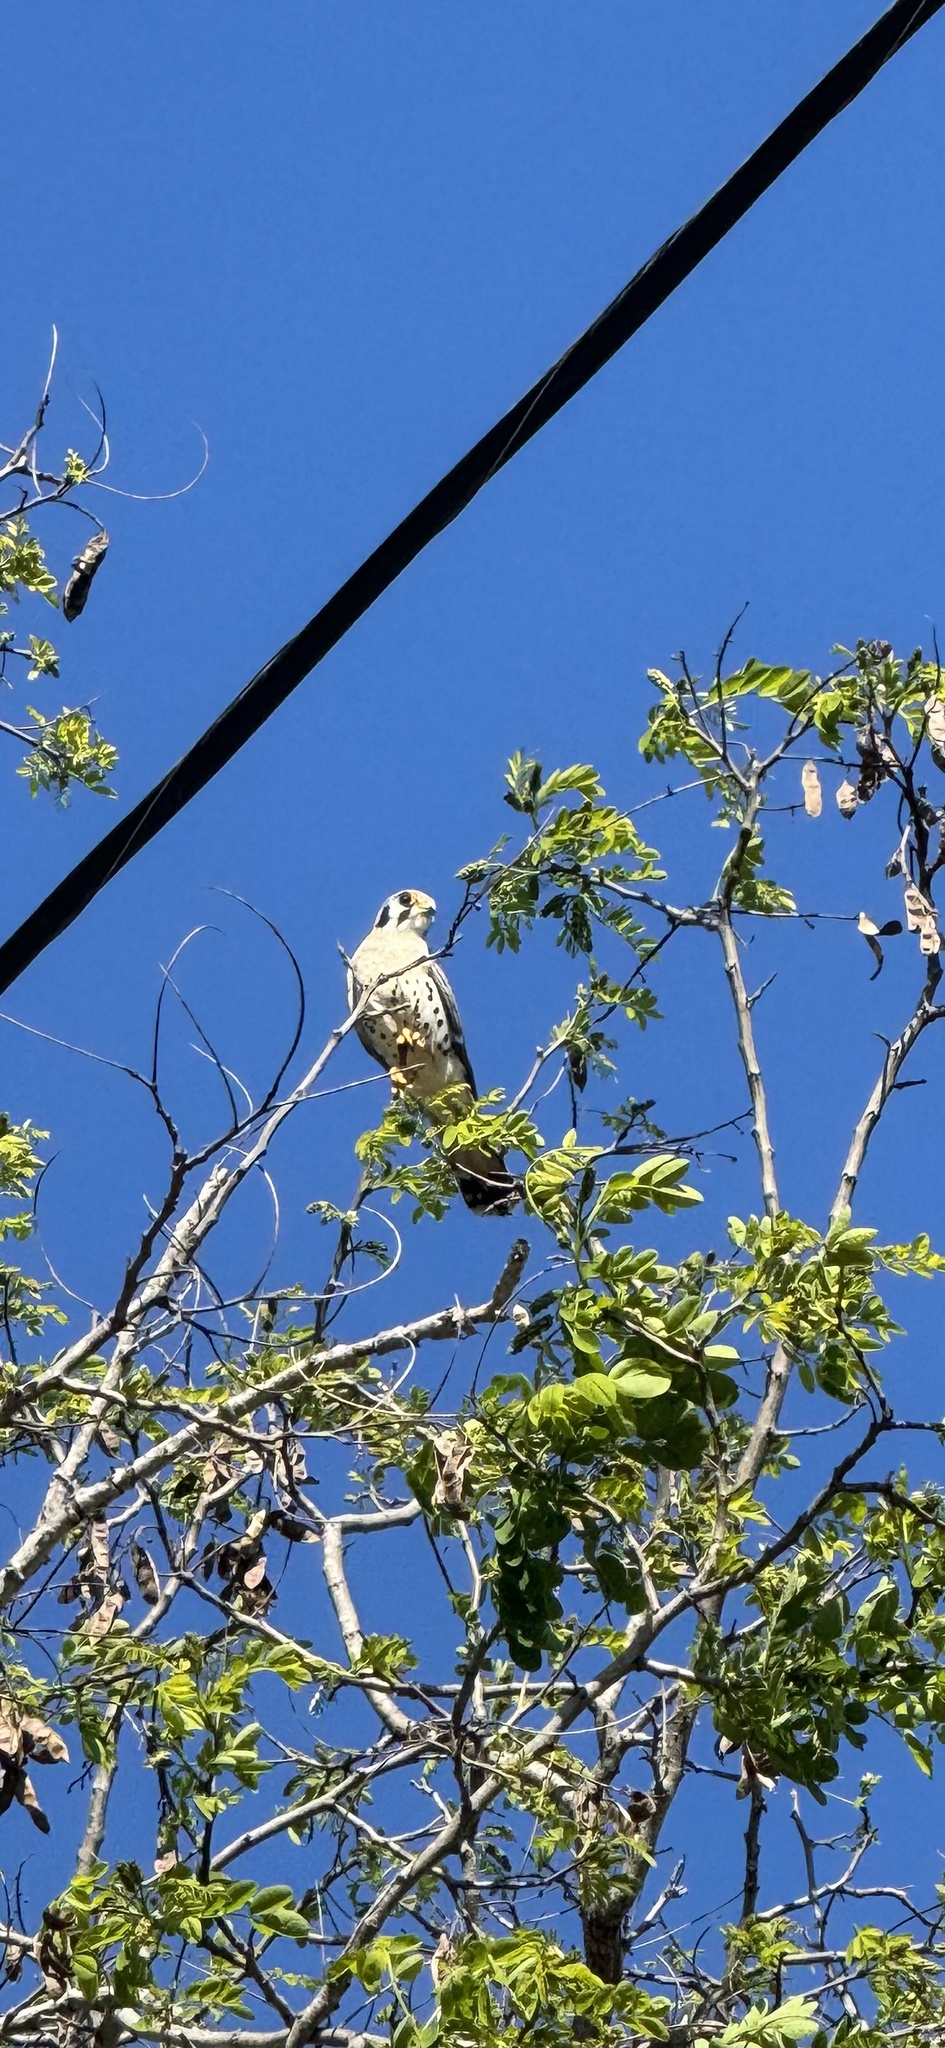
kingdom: Animalia
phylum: Chordata
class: Aves
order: Falconiformes
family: Falconidae
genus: Falco
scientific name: Falco sparverius
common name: American kestrel
